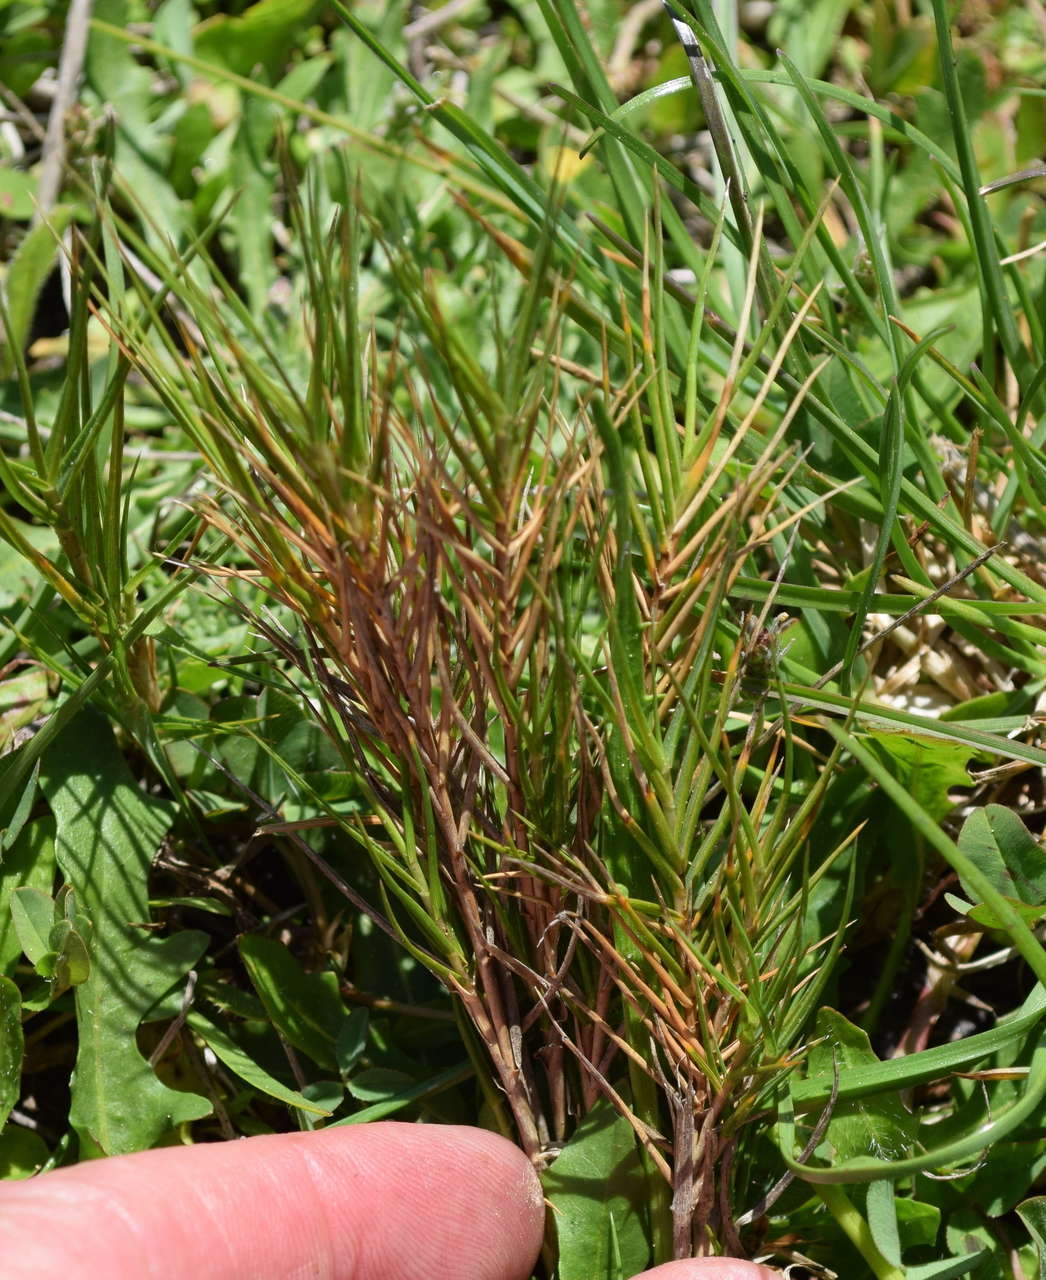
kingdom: Plantae
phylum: Tracheophyta
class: Liliopsida
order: Poales
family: Poaceae
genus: Distichlis
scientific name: Distichlis distichophylla
